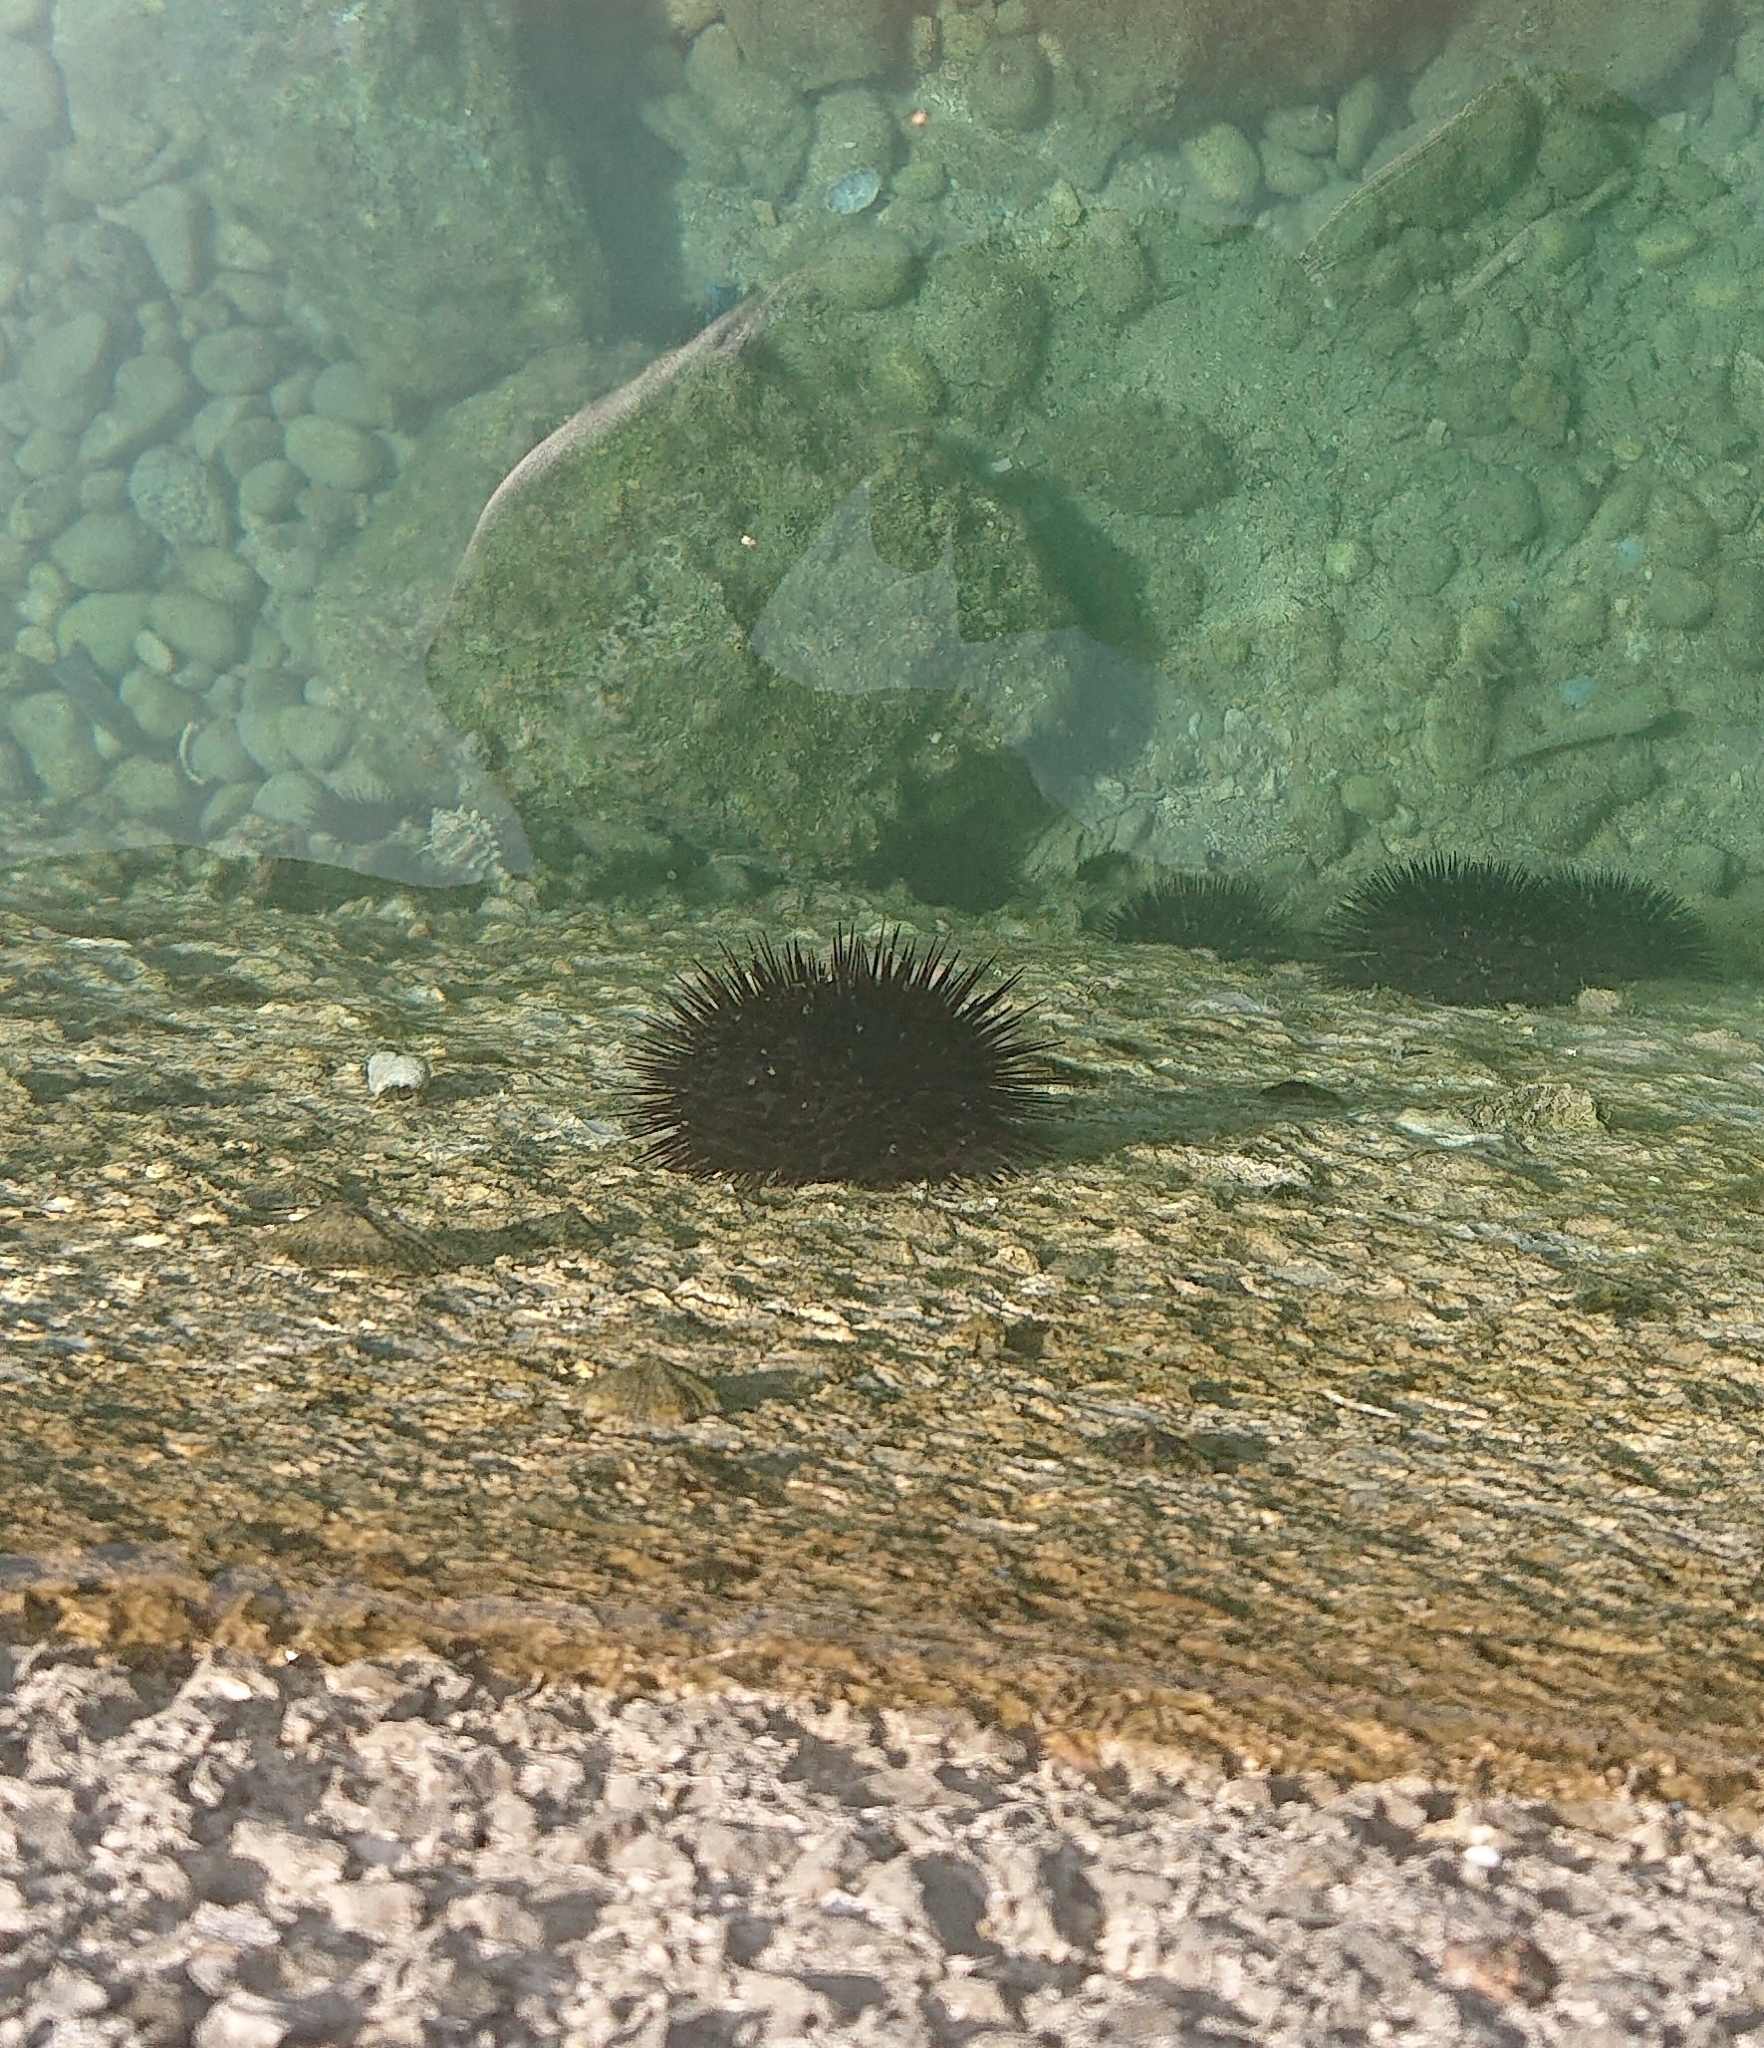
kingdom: Animalia
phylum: Echinodermata
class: Echinoidea
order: Arbacioida
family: Arbaciidae
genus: Arbacia
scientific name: Arbacia lixula
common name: Black sea urchin
